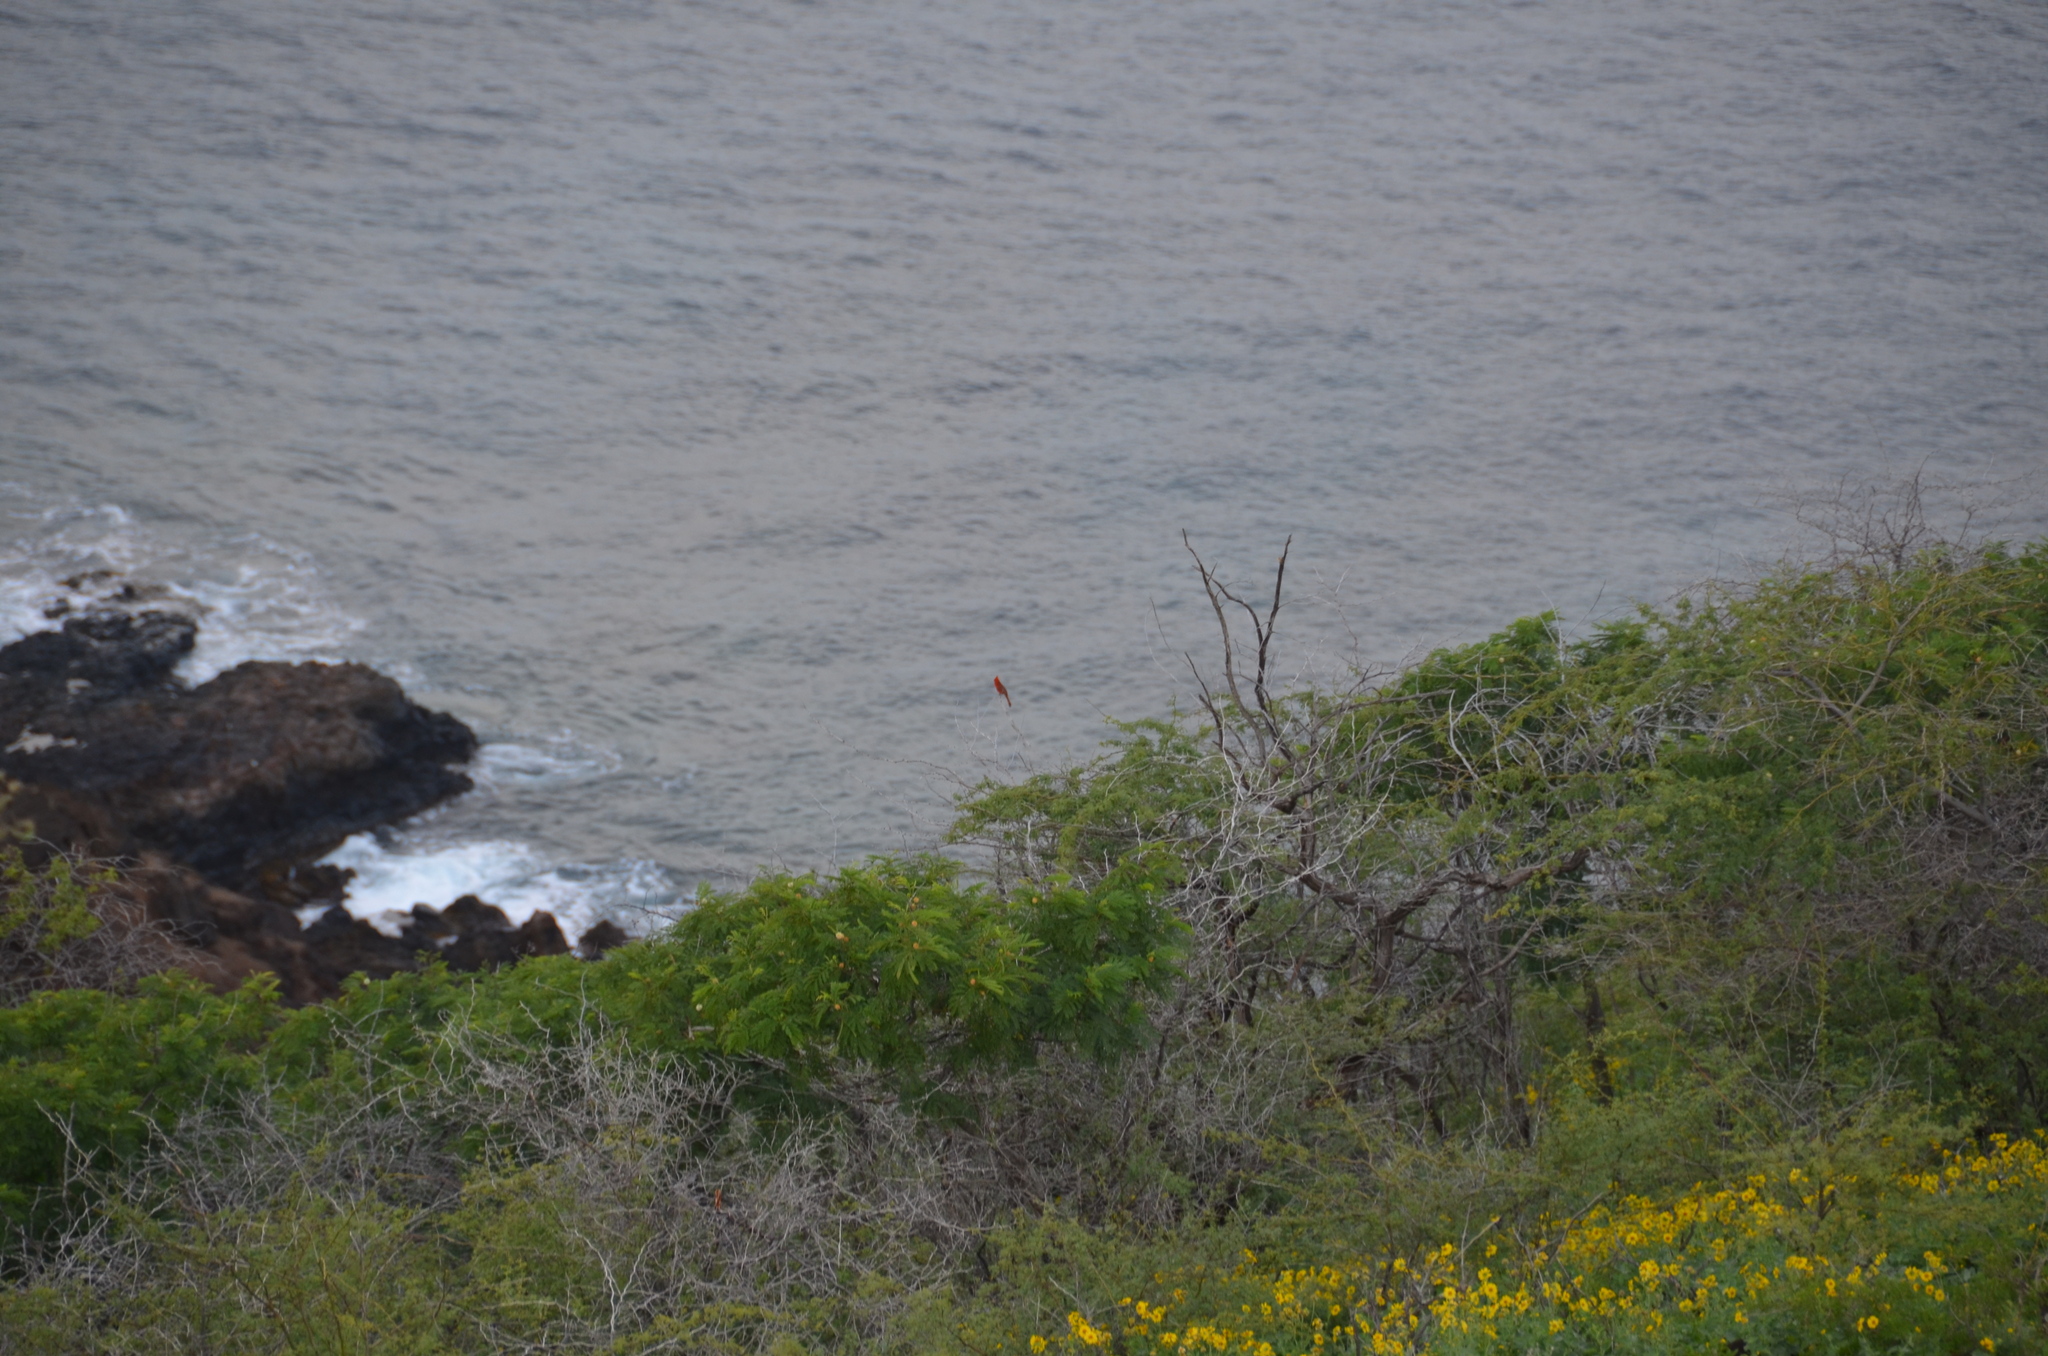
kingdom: Animalia
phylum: Chordata
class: Aves
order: Passeriformes
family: Cardinalidae
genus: Cardinalis
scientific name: Cardinalis cardinalis
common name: Northern cardinal
